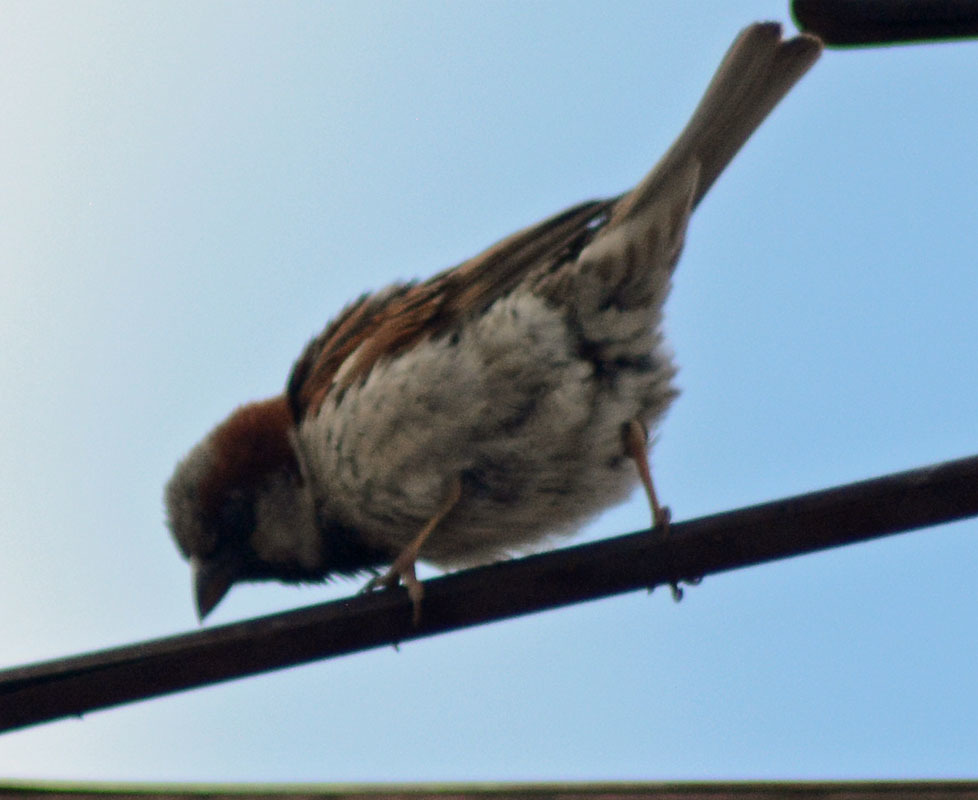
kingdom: Animalia
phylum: Chordata
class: Aves
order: Passeriformes
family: Passeridae
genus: Passer
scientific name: Passer domesticus
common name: House sparrow
